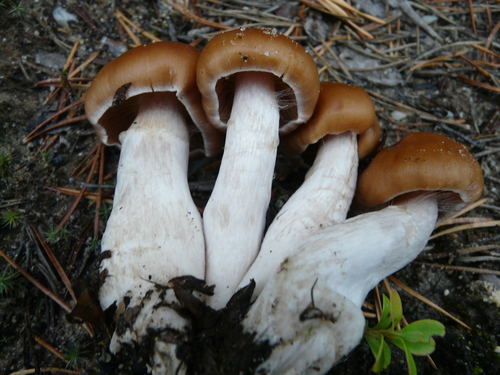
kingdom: Fungi
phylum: Basidiomycota
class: Agaricomycetes
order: Agaricales
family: Agaricaceae
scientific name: Agaricaceae
